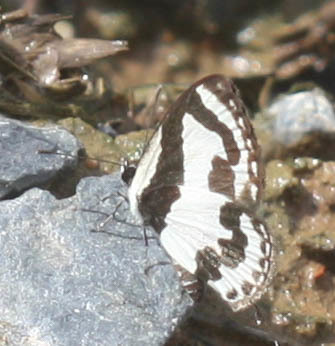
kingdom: Animalia
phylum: Arthropoda
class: Insecta
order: Lepidoptera
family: Lycaenidae
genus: Caleta
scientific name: Caleta roxus
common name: Straight pierrot
